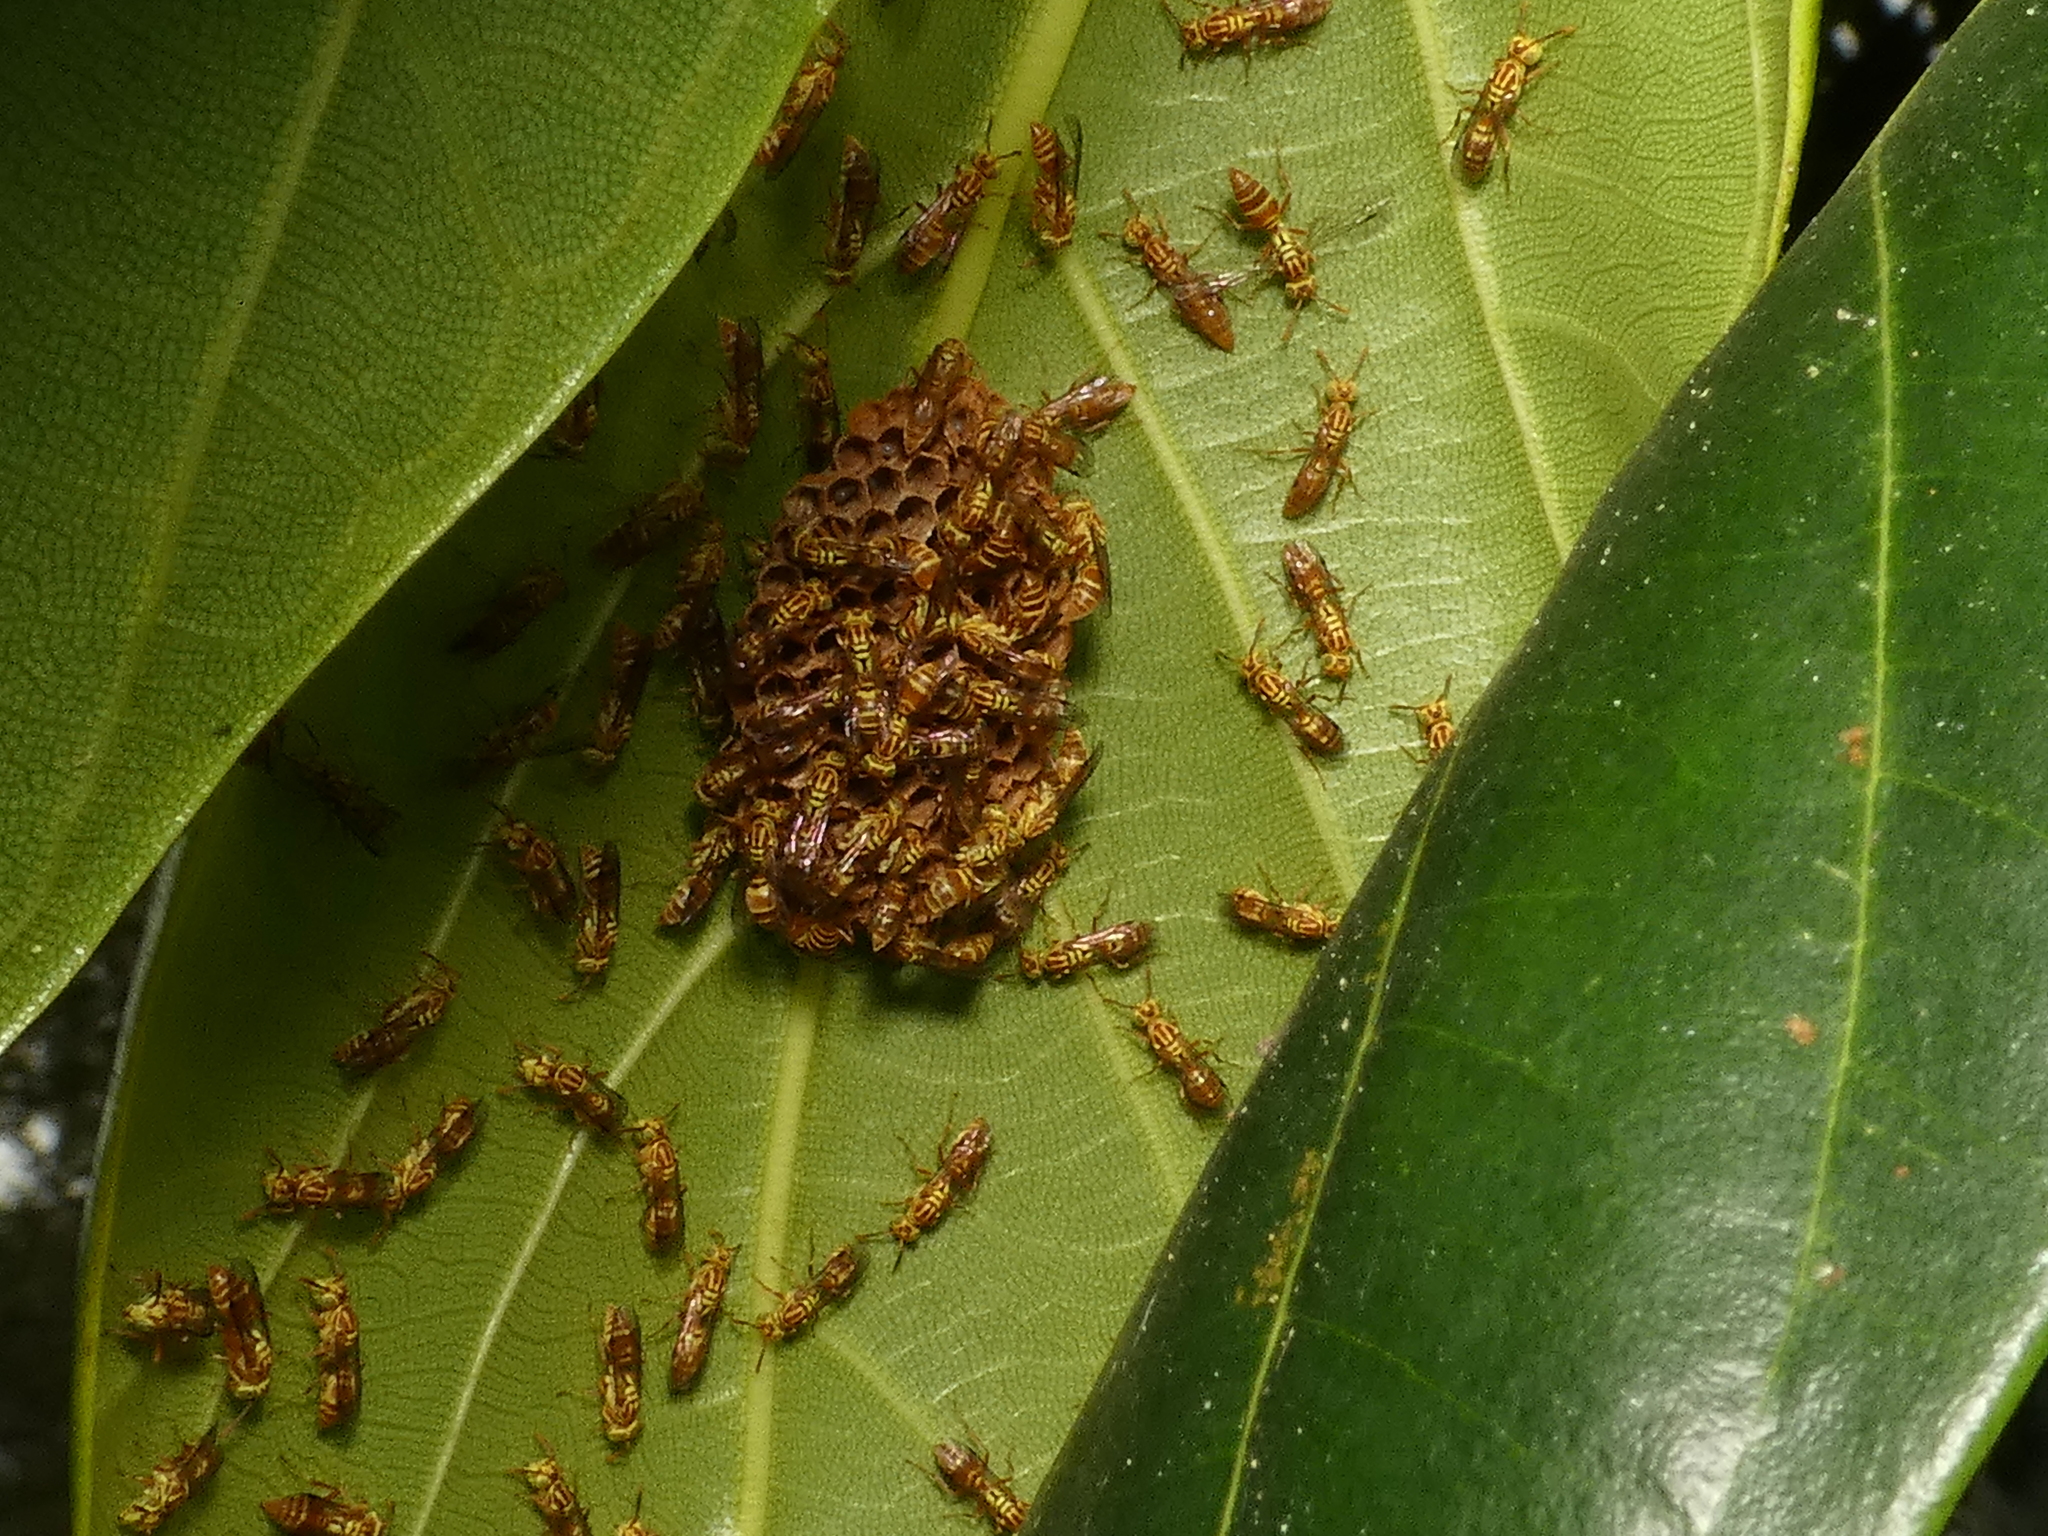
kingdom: Animalia
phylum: Arthropoda
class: Insecta
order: Hymenoptera
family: Vespidae
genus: Protopolybia
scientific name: Protopolybia potiguara
